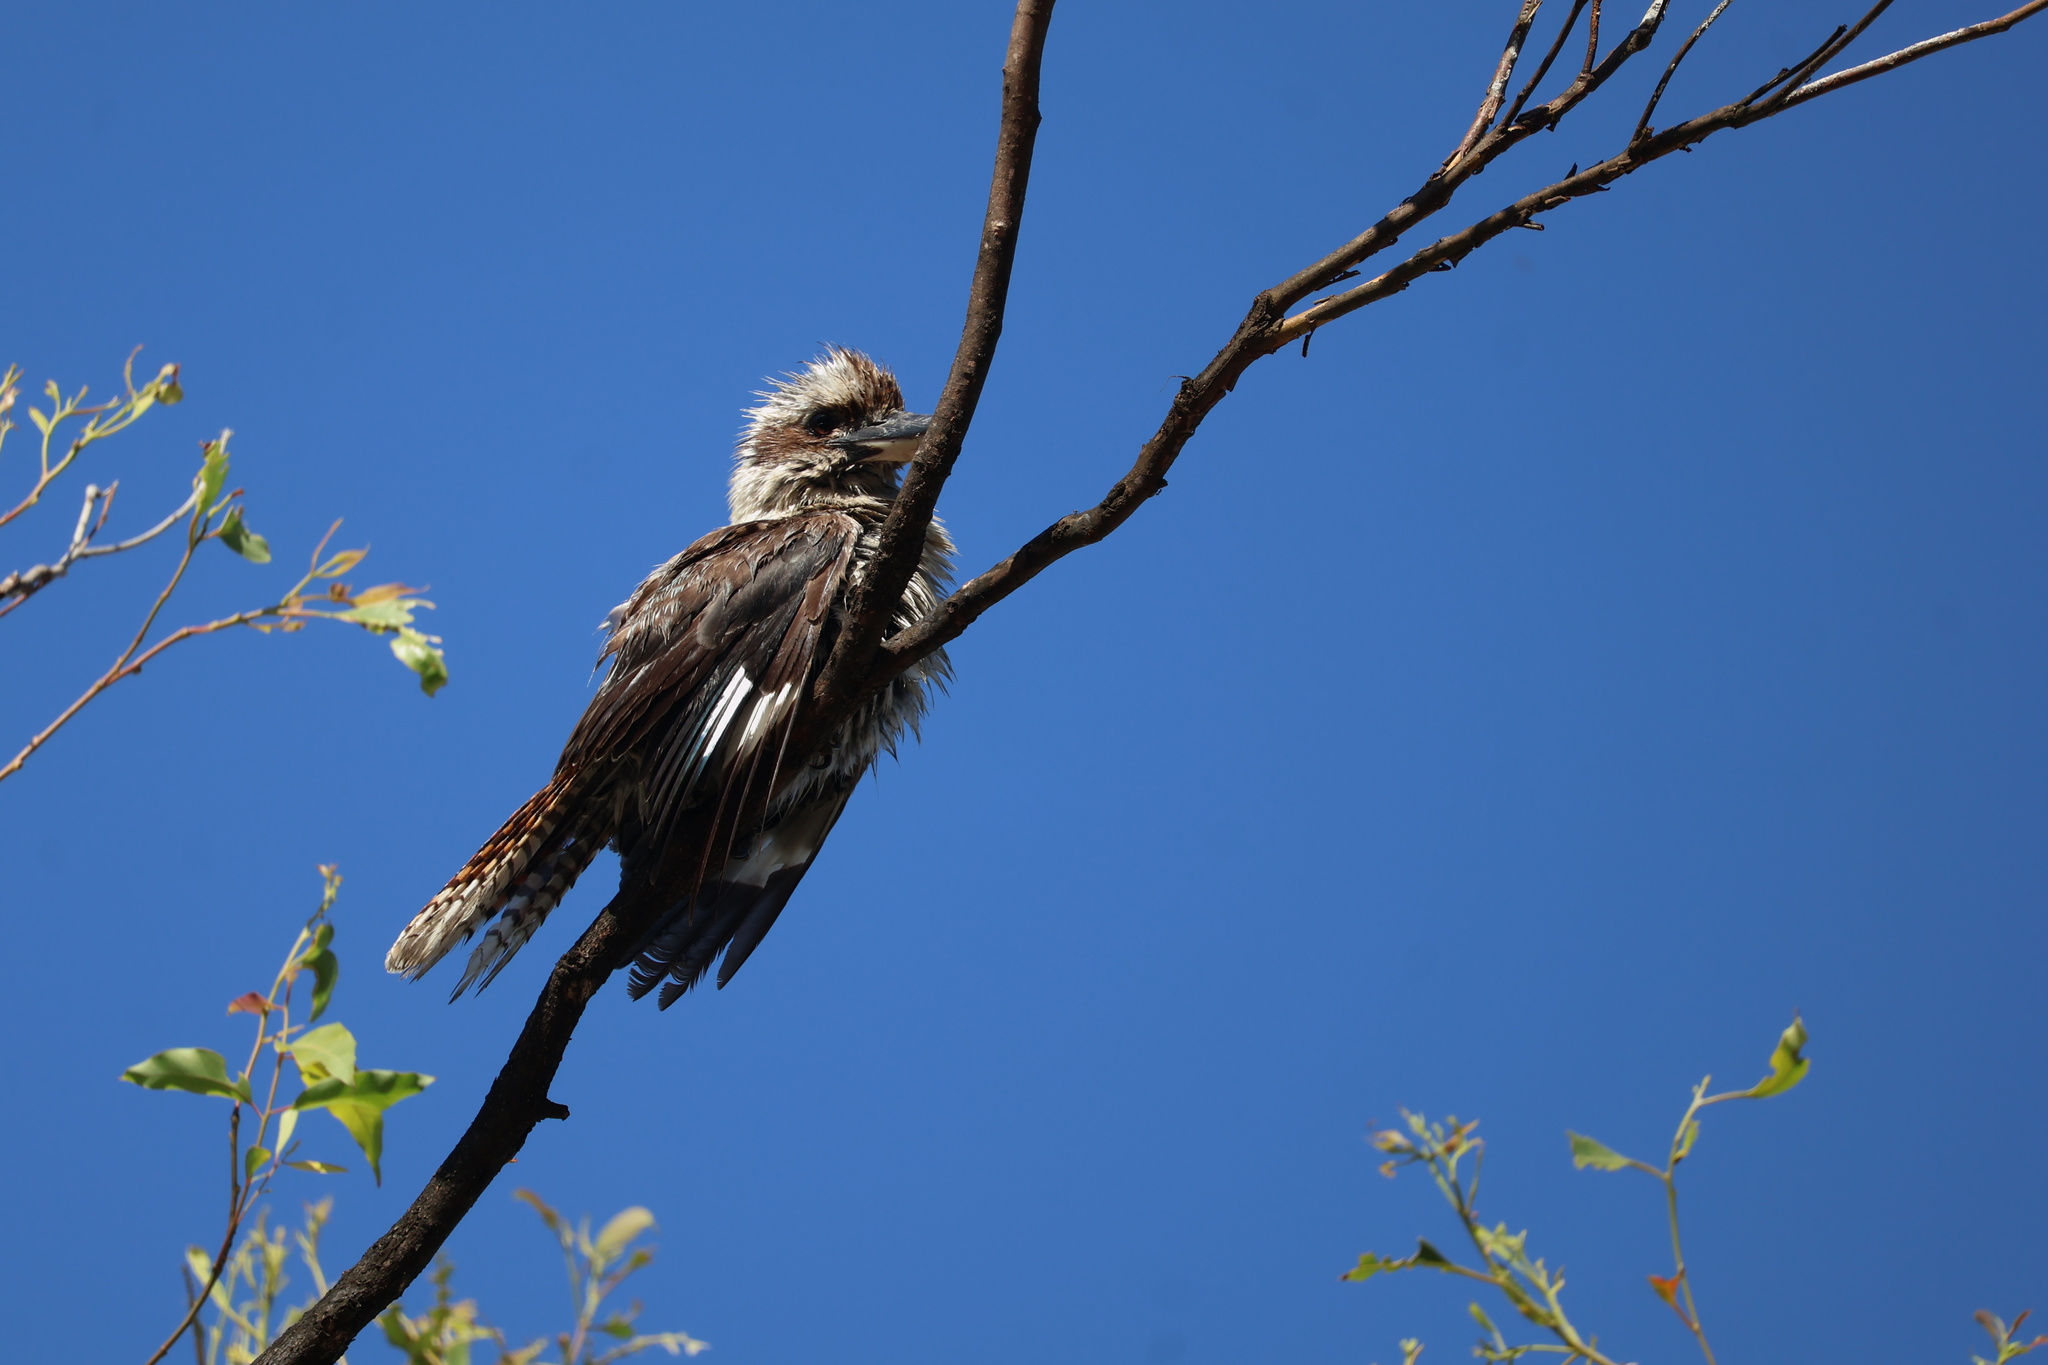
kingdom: Animalia
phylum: Chordata
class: Aves
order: Coraciiformes
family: Alcedinidae
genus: Dacelo
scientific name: Dacelo novaeguineae
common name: Laughing kookaburra
